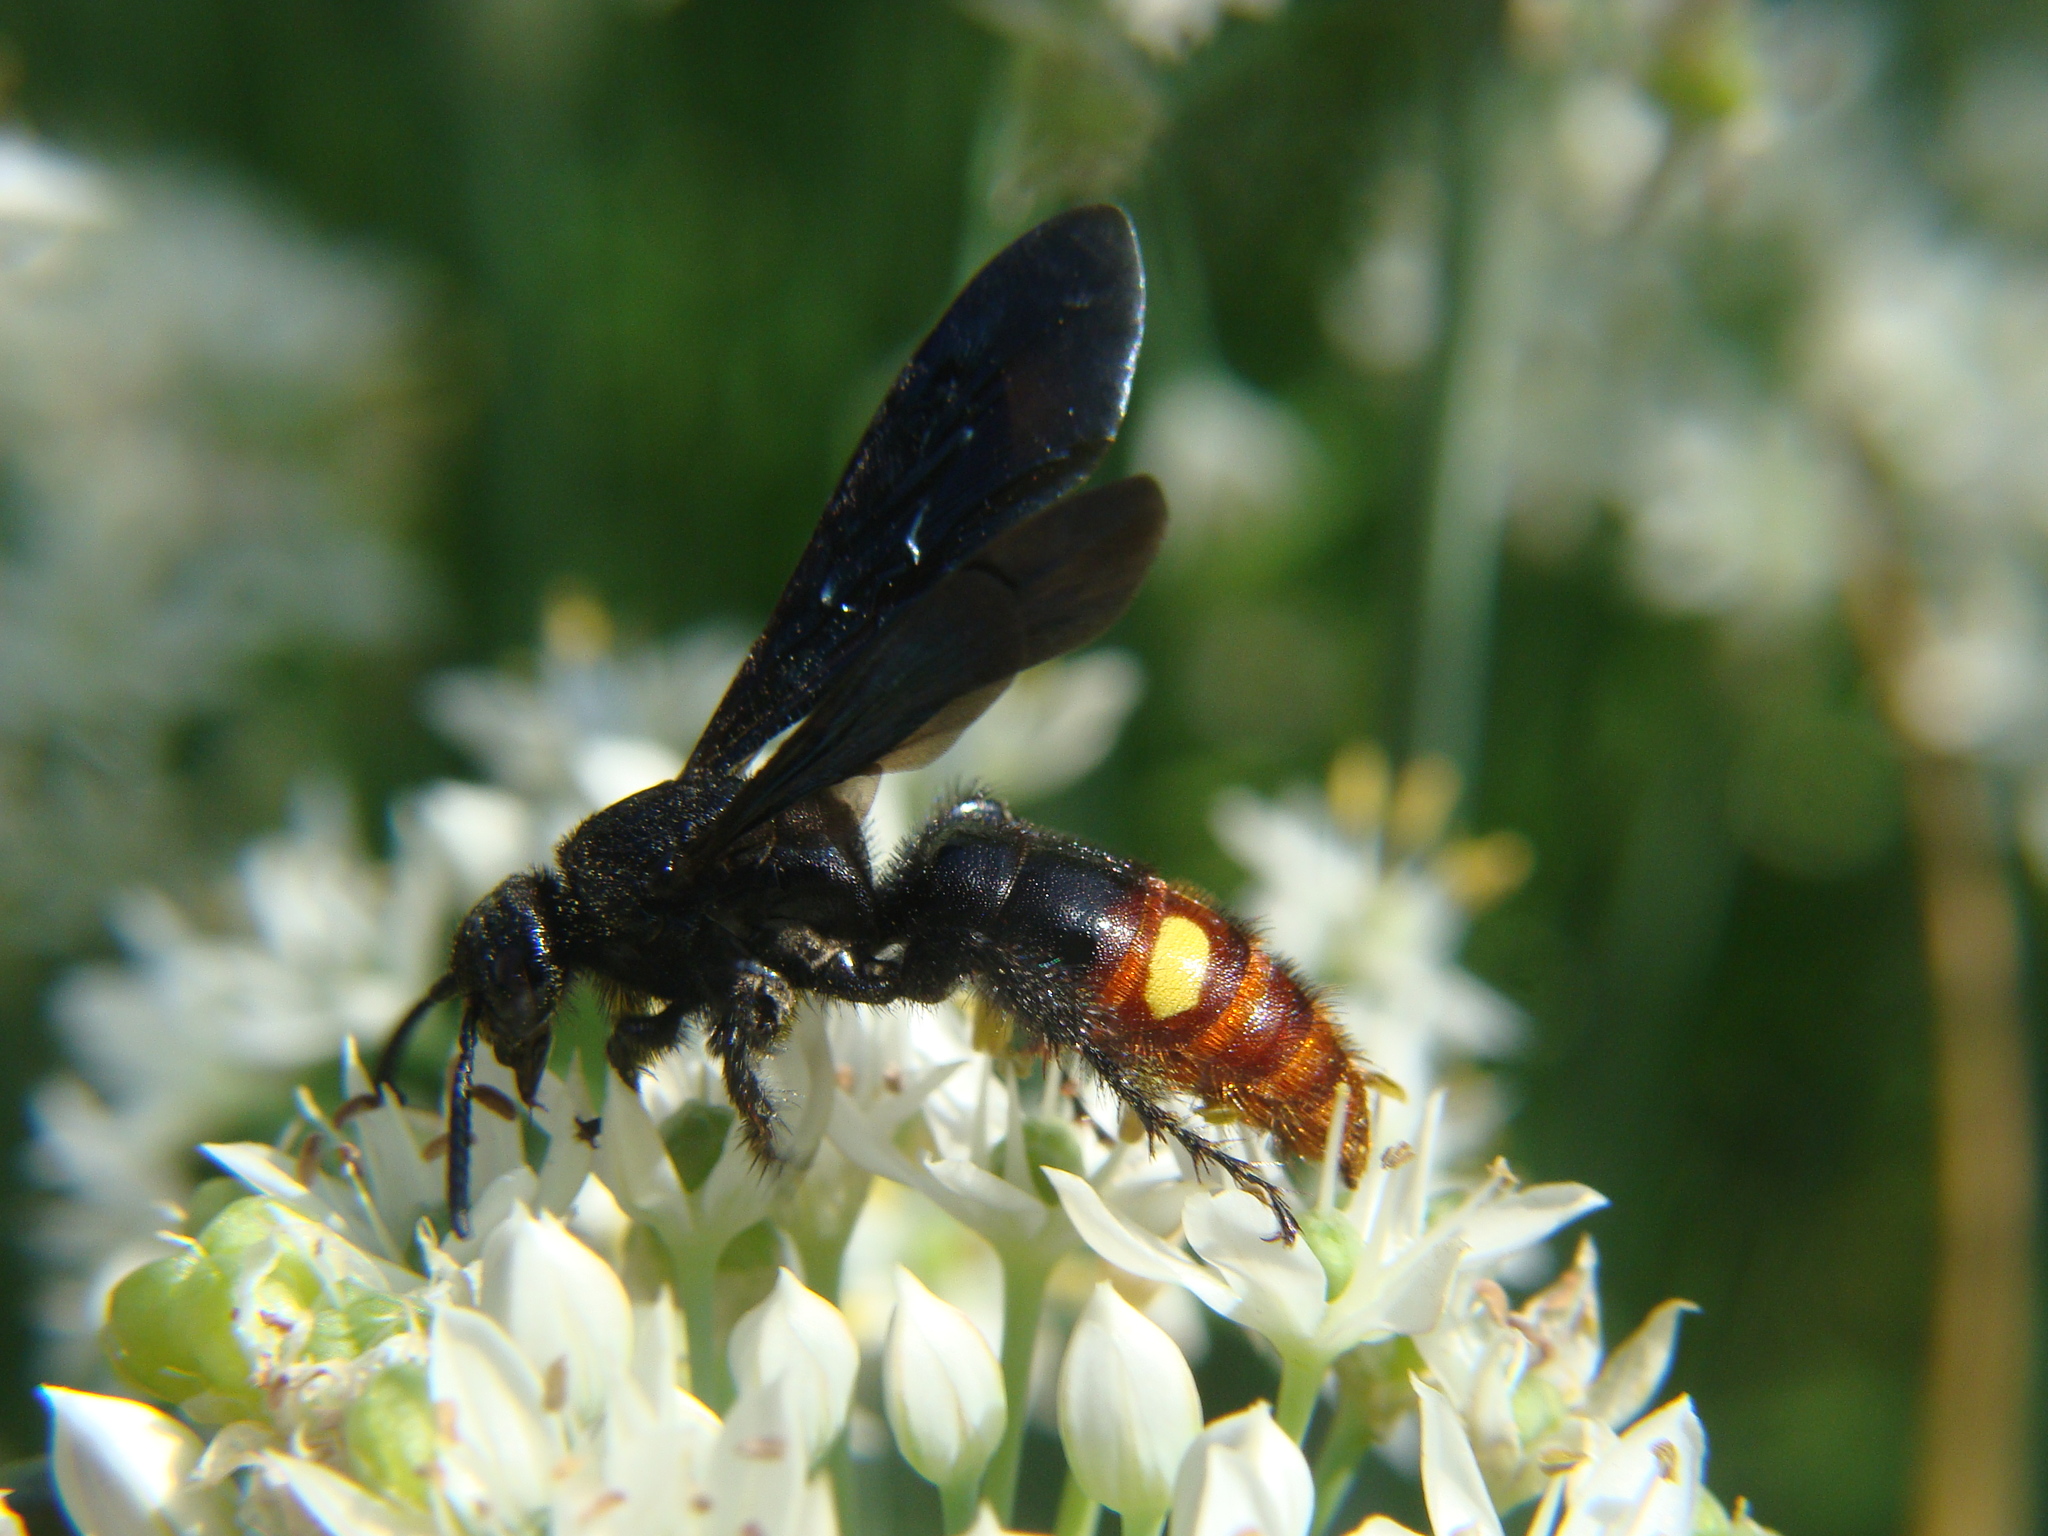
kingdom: Animalia
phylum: Arthropoda
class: Insecta
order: Hymenoptera
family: Scoliidae
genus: Scolia
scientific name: Scolia dubia
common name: Blue-winged scoliid wasp
